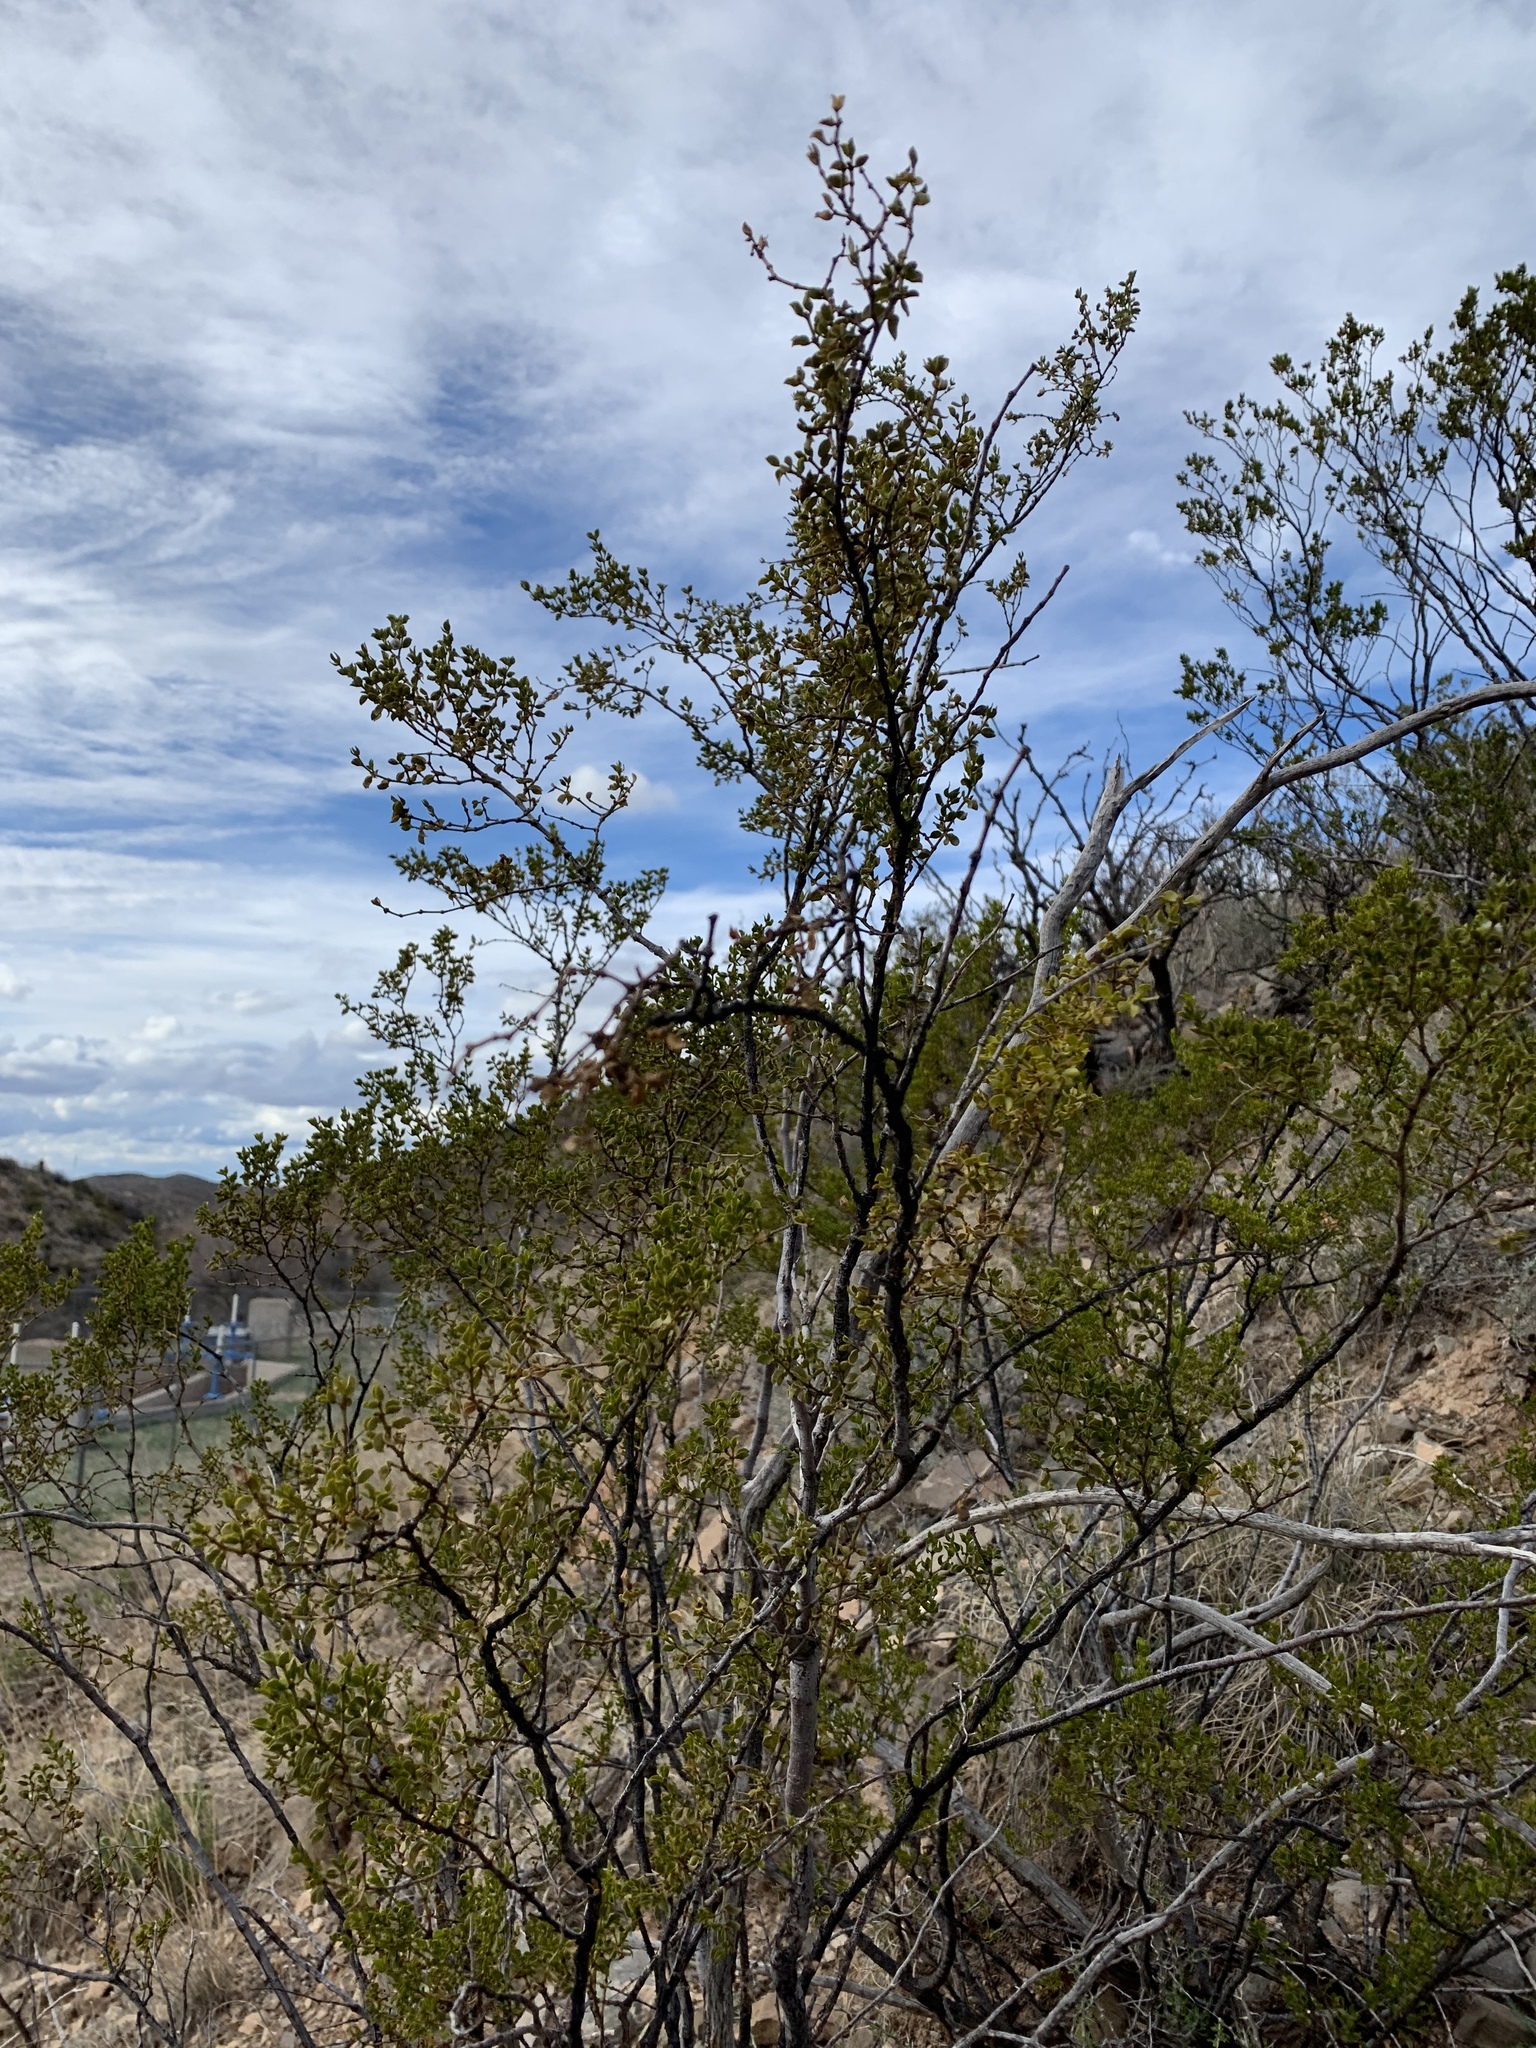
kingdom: Plantae
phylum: Tracheophyta
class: Magnoliopsida
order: Zygophyllales
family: Zygophyllaceae
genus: Larrea
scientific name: Larrea tridentata
